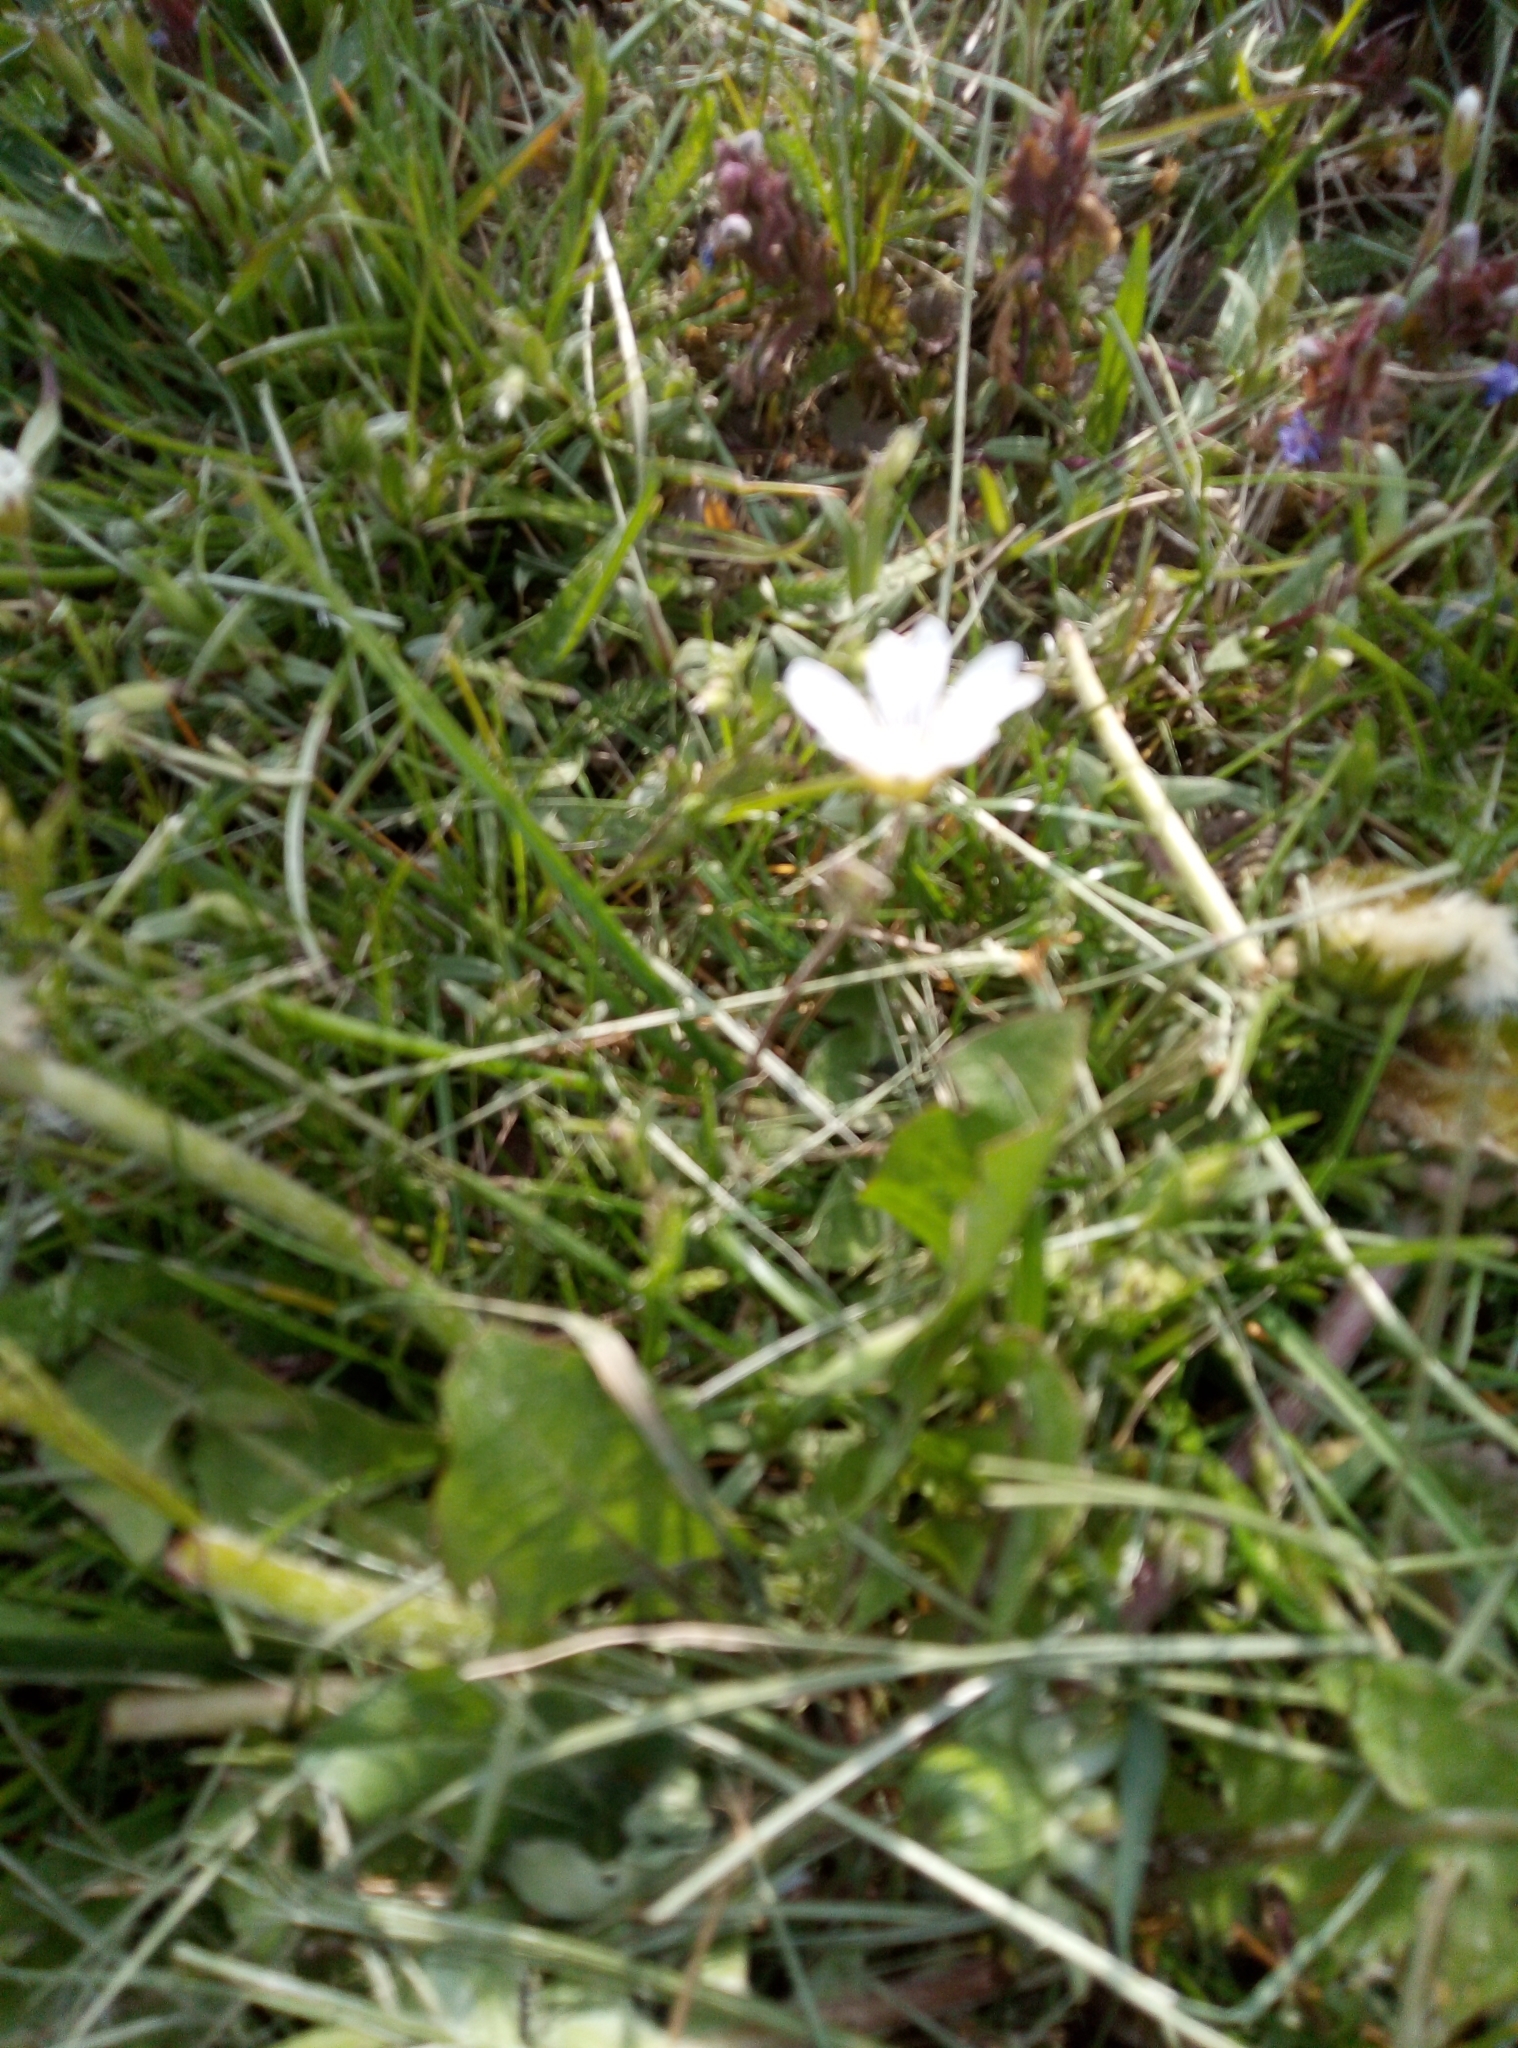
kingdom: Plantae
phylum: Tracheophyta
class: Magnoliopsida
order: Caryophyllales
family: Caryophyllaceae
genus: Cerastium
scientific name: Cerastium arvense
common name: Field mouse-ear
